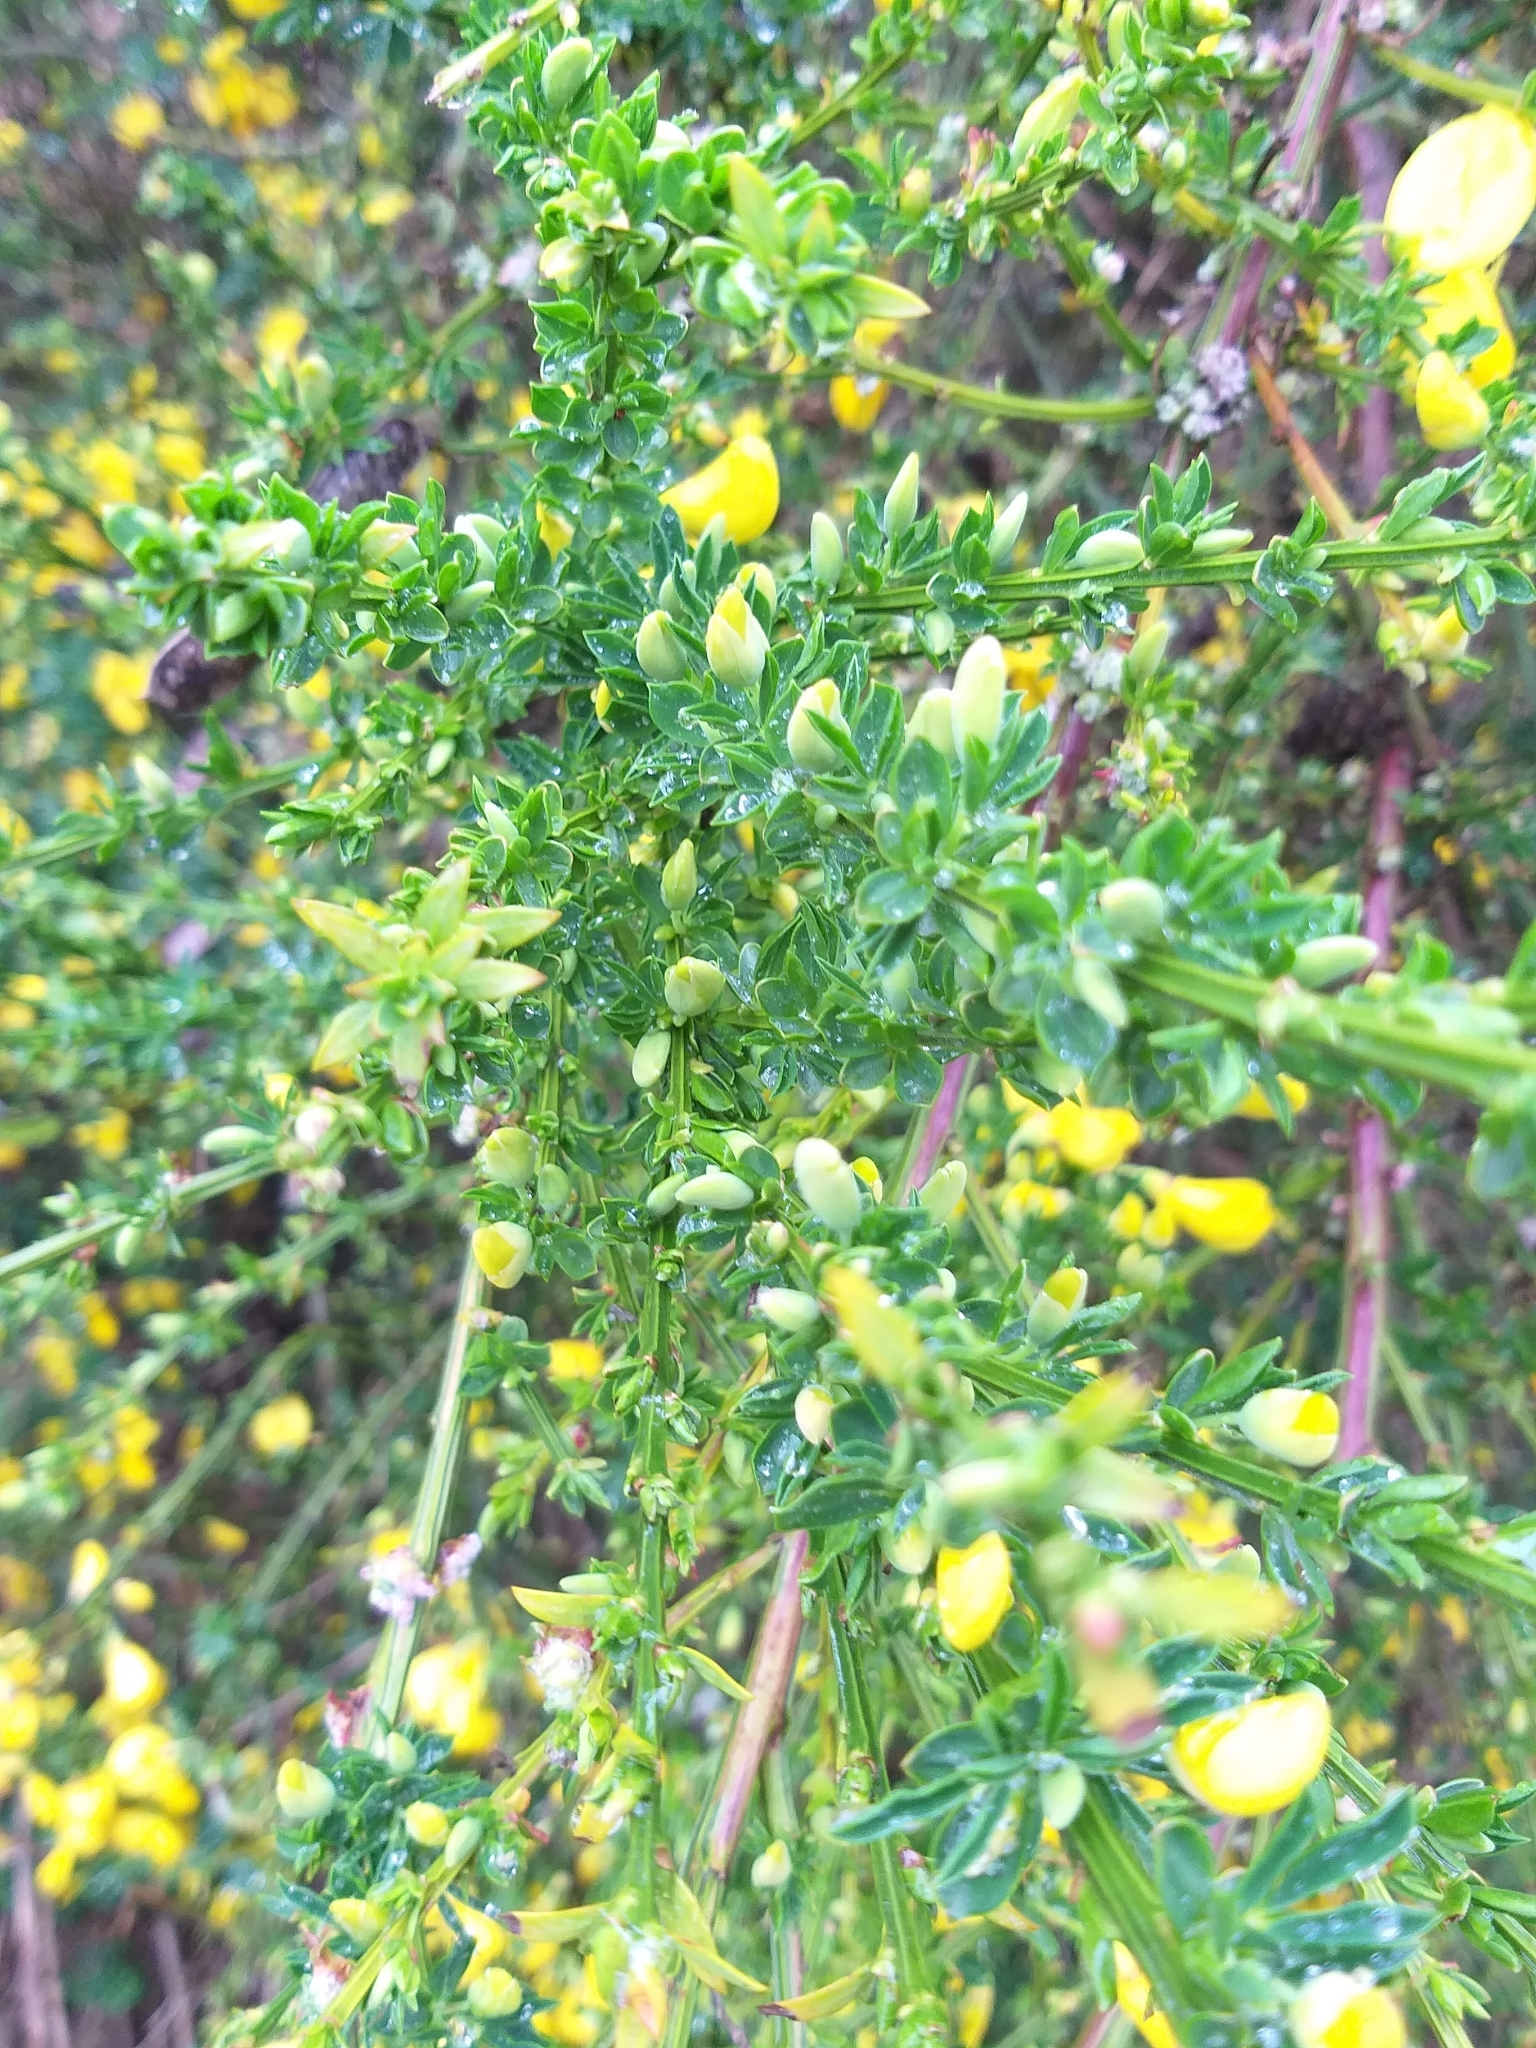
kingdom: Plantae
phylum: Tracheophyta
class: Magnoliopsida
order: Fabales
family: Fabaceae
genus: Cytisus
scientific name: Cytisus scoparius
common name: Scotch broom
